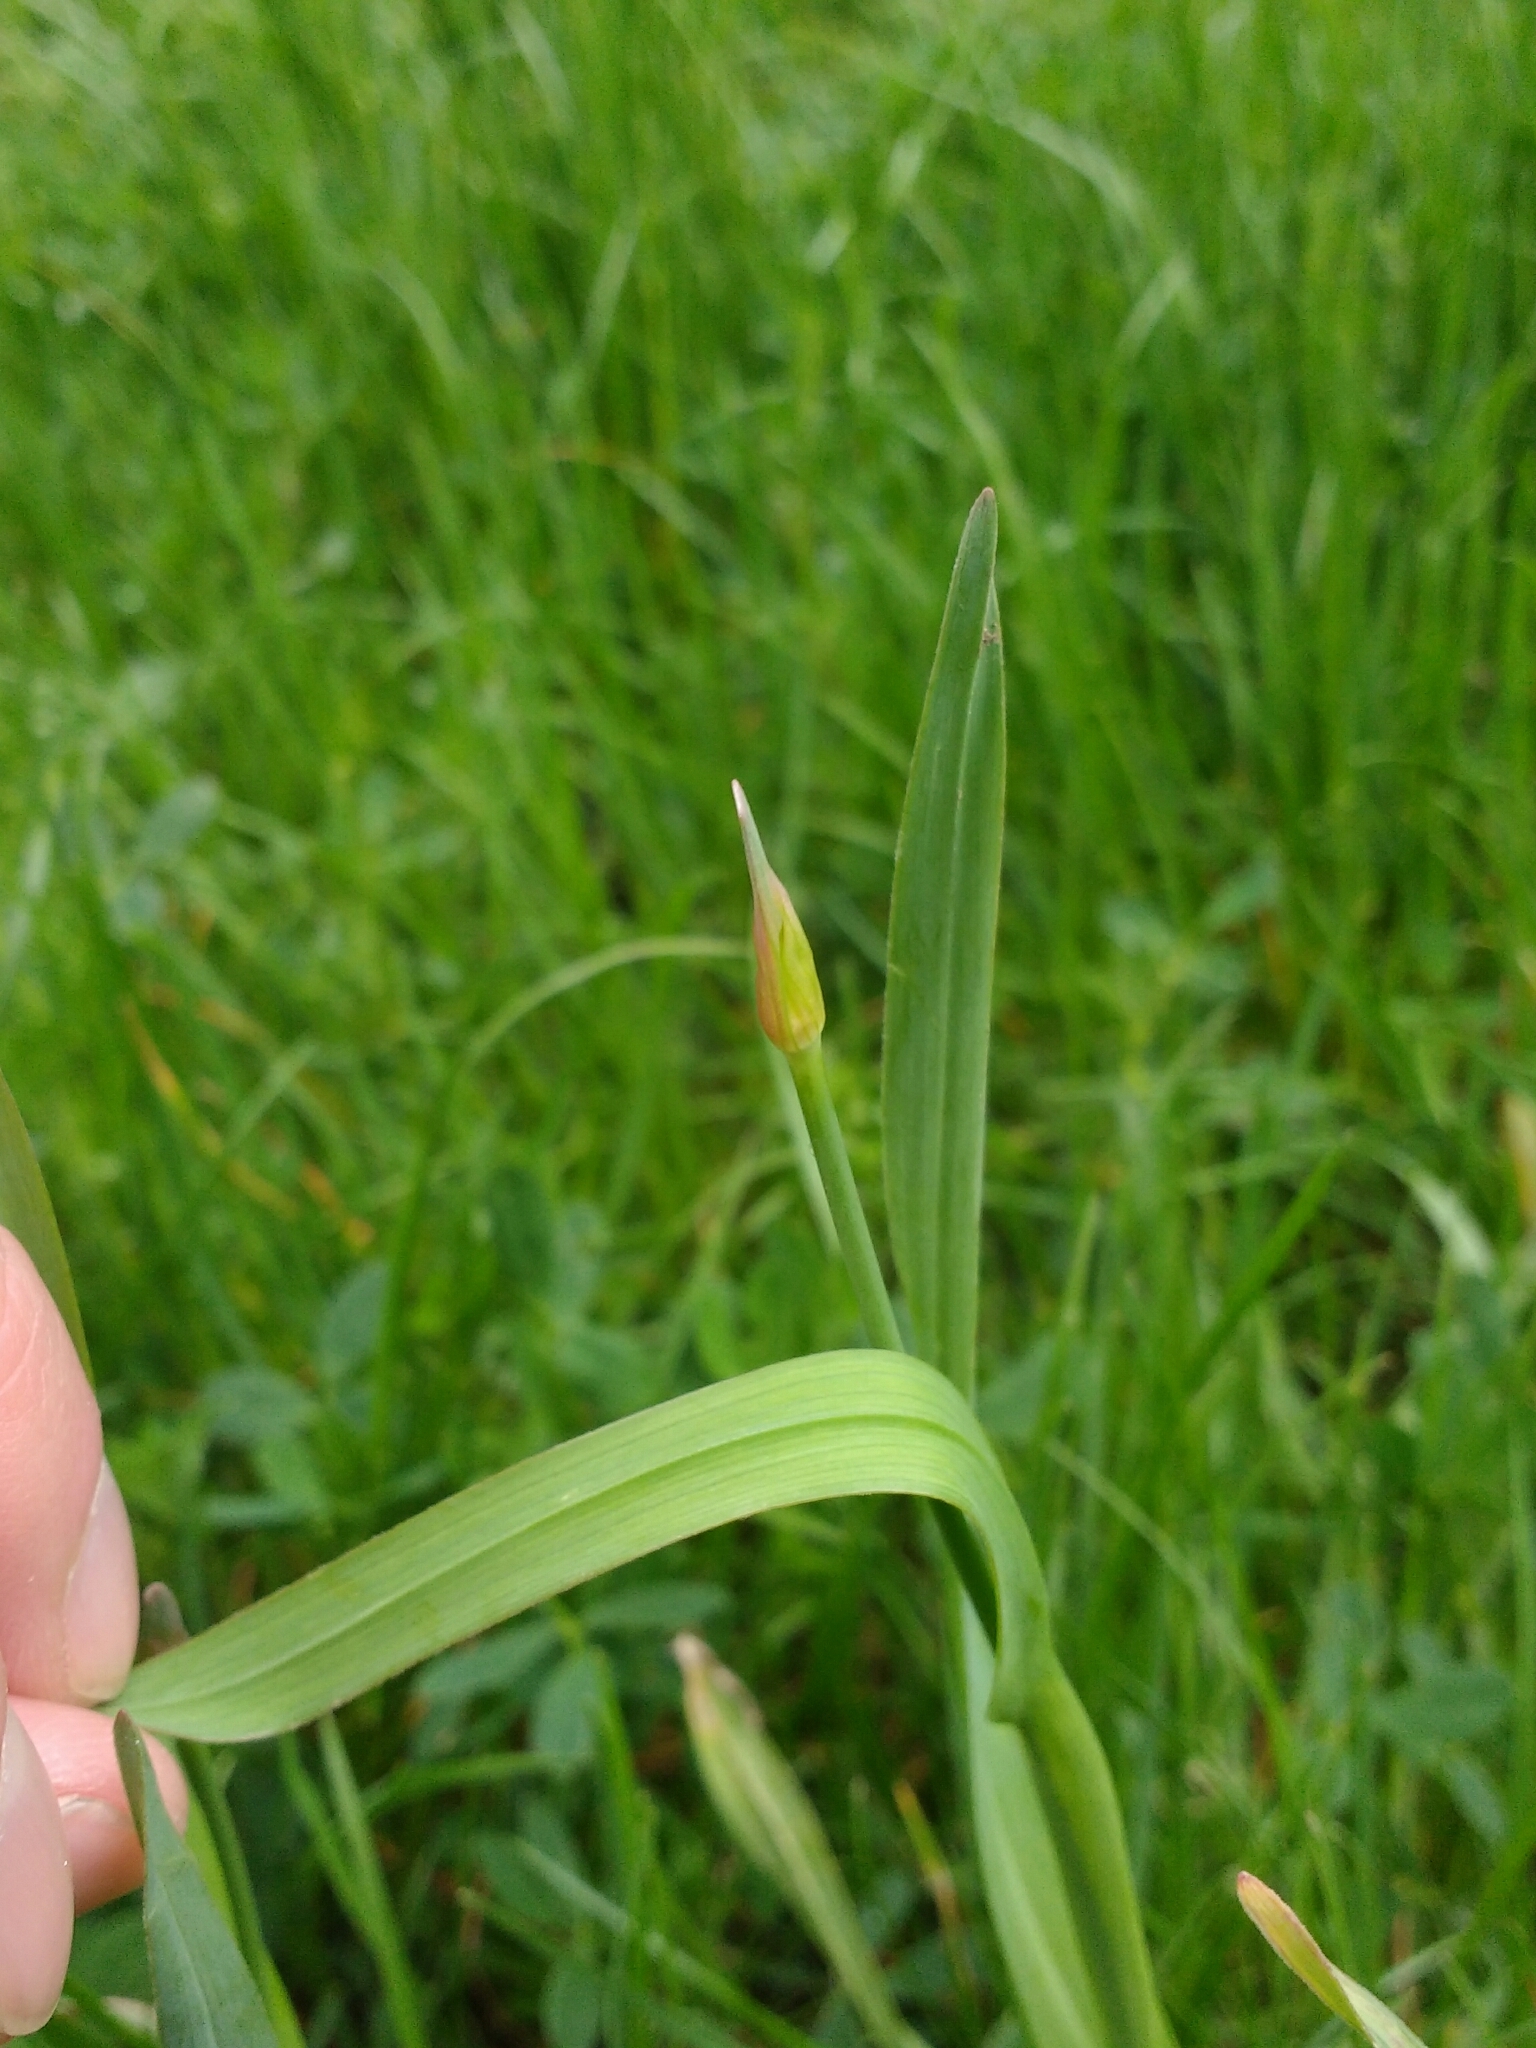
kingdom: Plantae
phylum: Tracheophyta
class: Liliopsida
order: Asparagales
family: Amaryllidaceae
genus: Allium
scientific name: Allium scorodoprasum
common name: Sand leek
